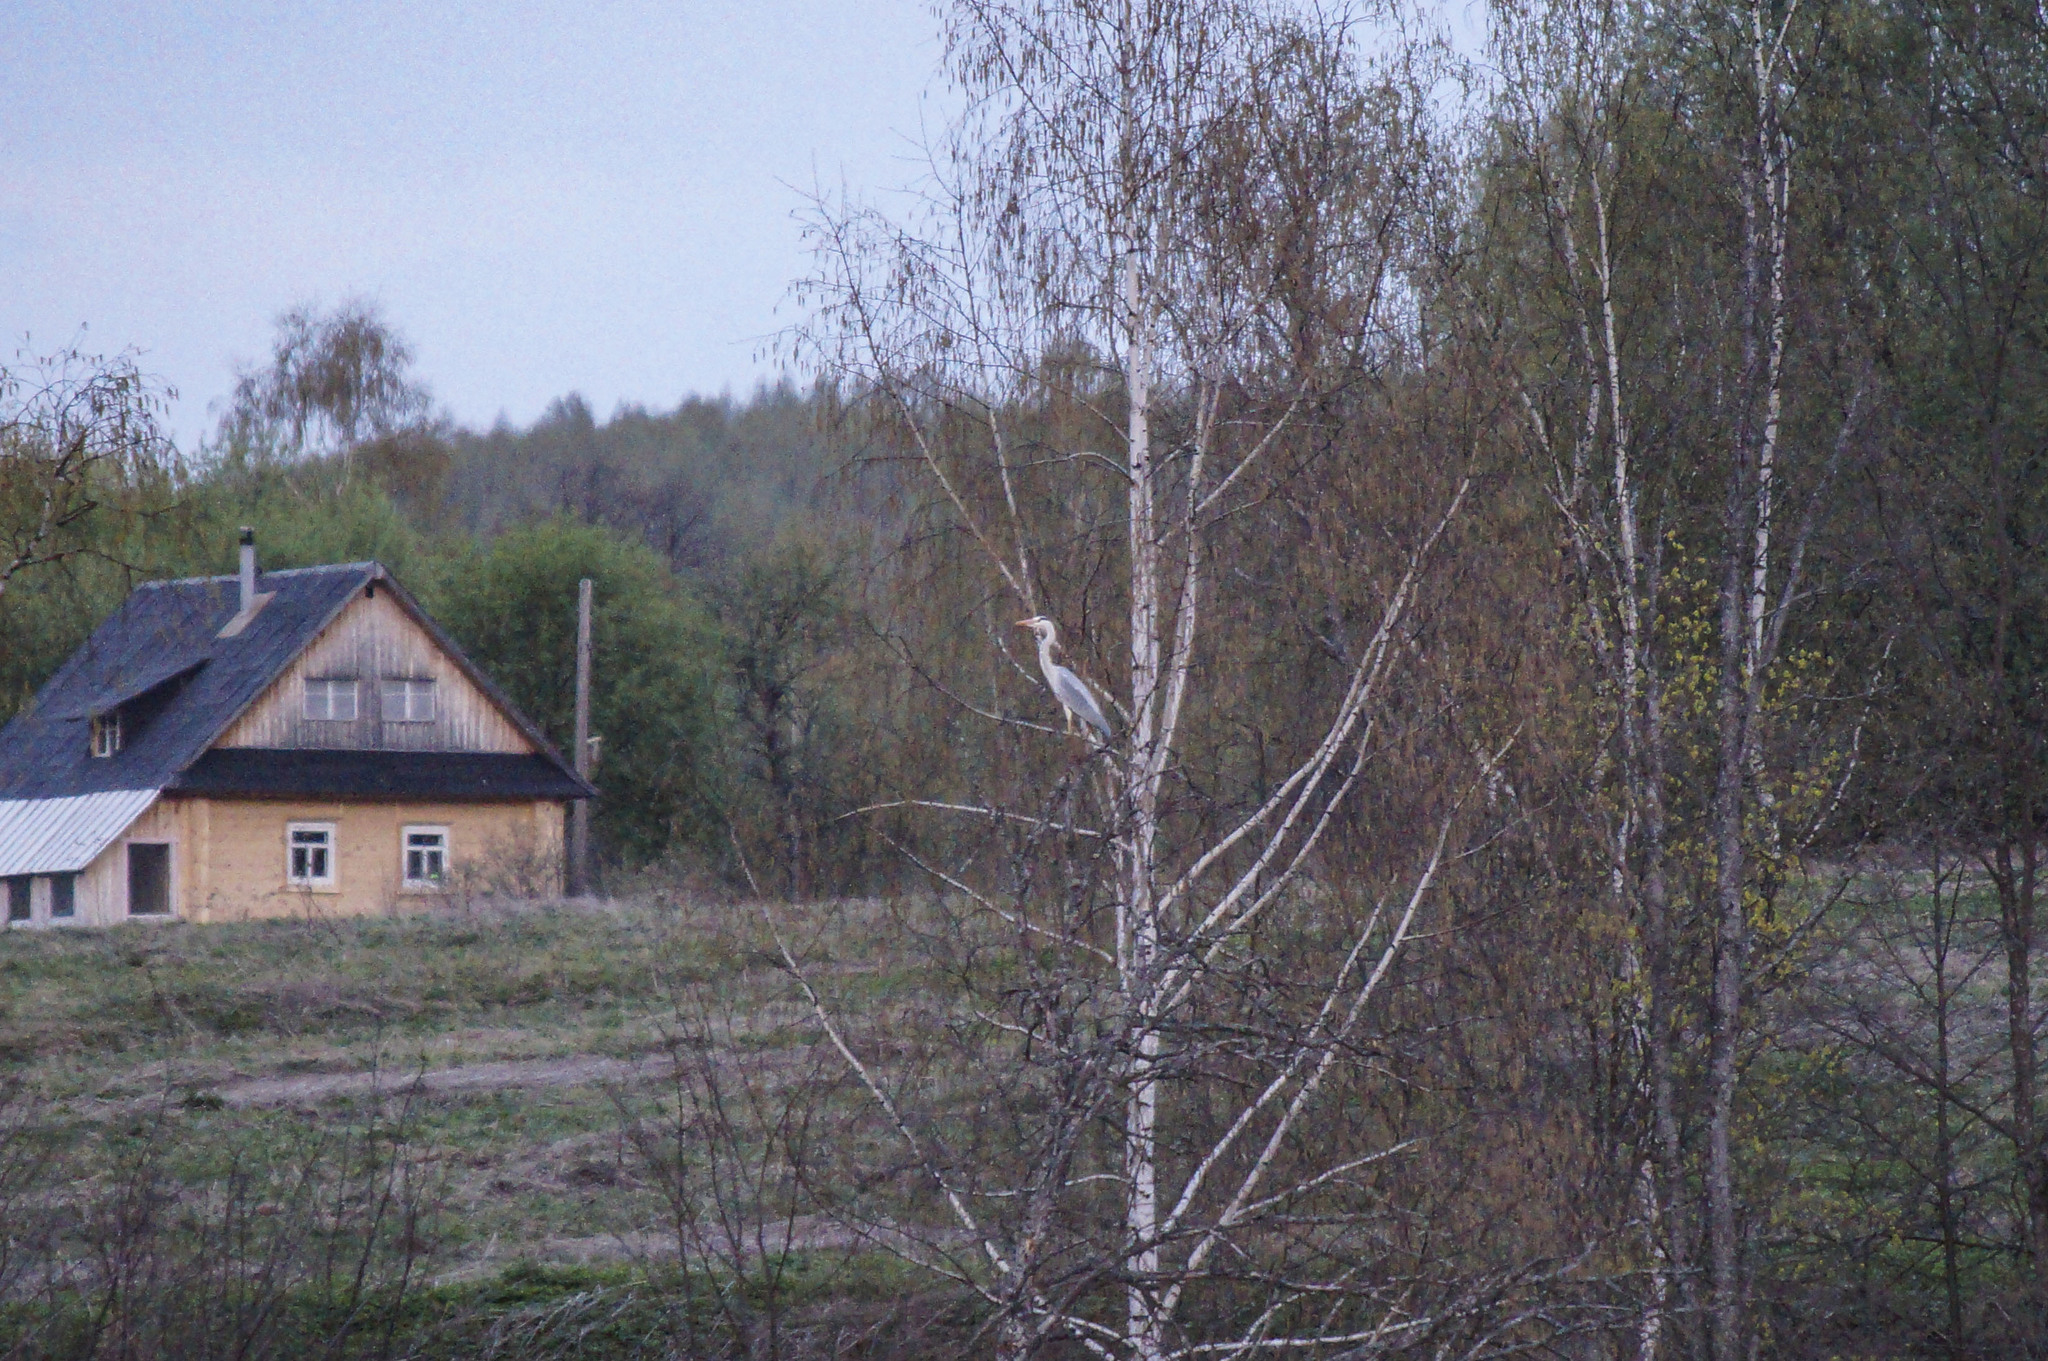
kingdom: Animalia
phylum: Chordata
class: Aves
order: Pelecaniformes
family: Ardeidae
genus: Ardea
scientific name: Ardea cinerea
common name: Grey heron
